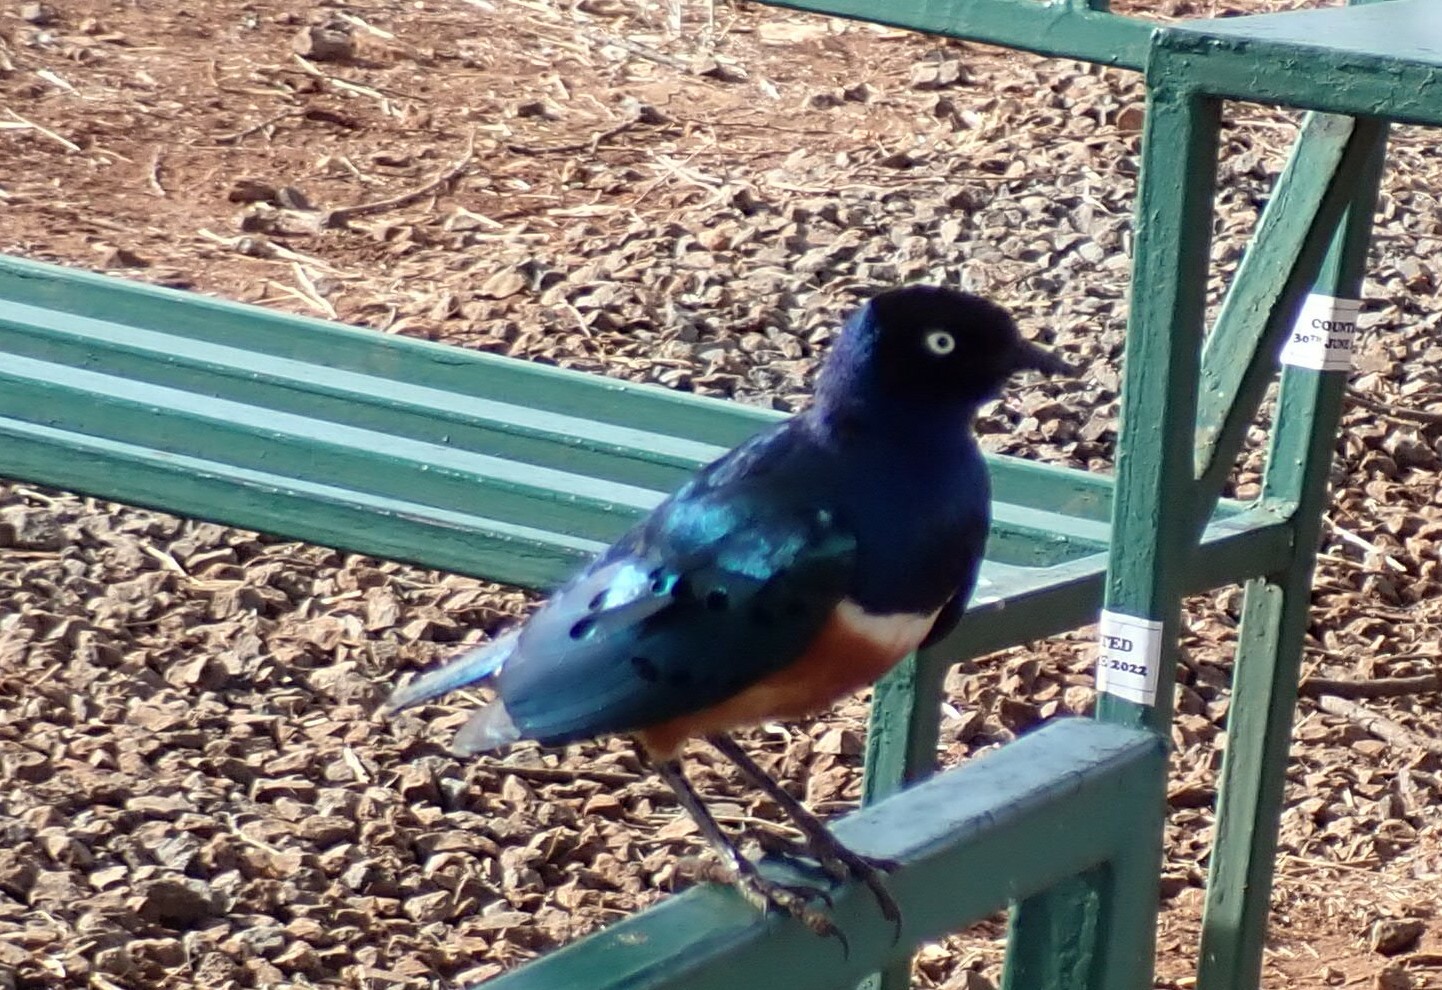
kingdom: Animalia
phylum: Chordata
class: Aves
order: Passeriformes
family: Sturnidae
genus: Lamprotornis
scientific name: Lamprotornis superbus
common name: Superb starling
